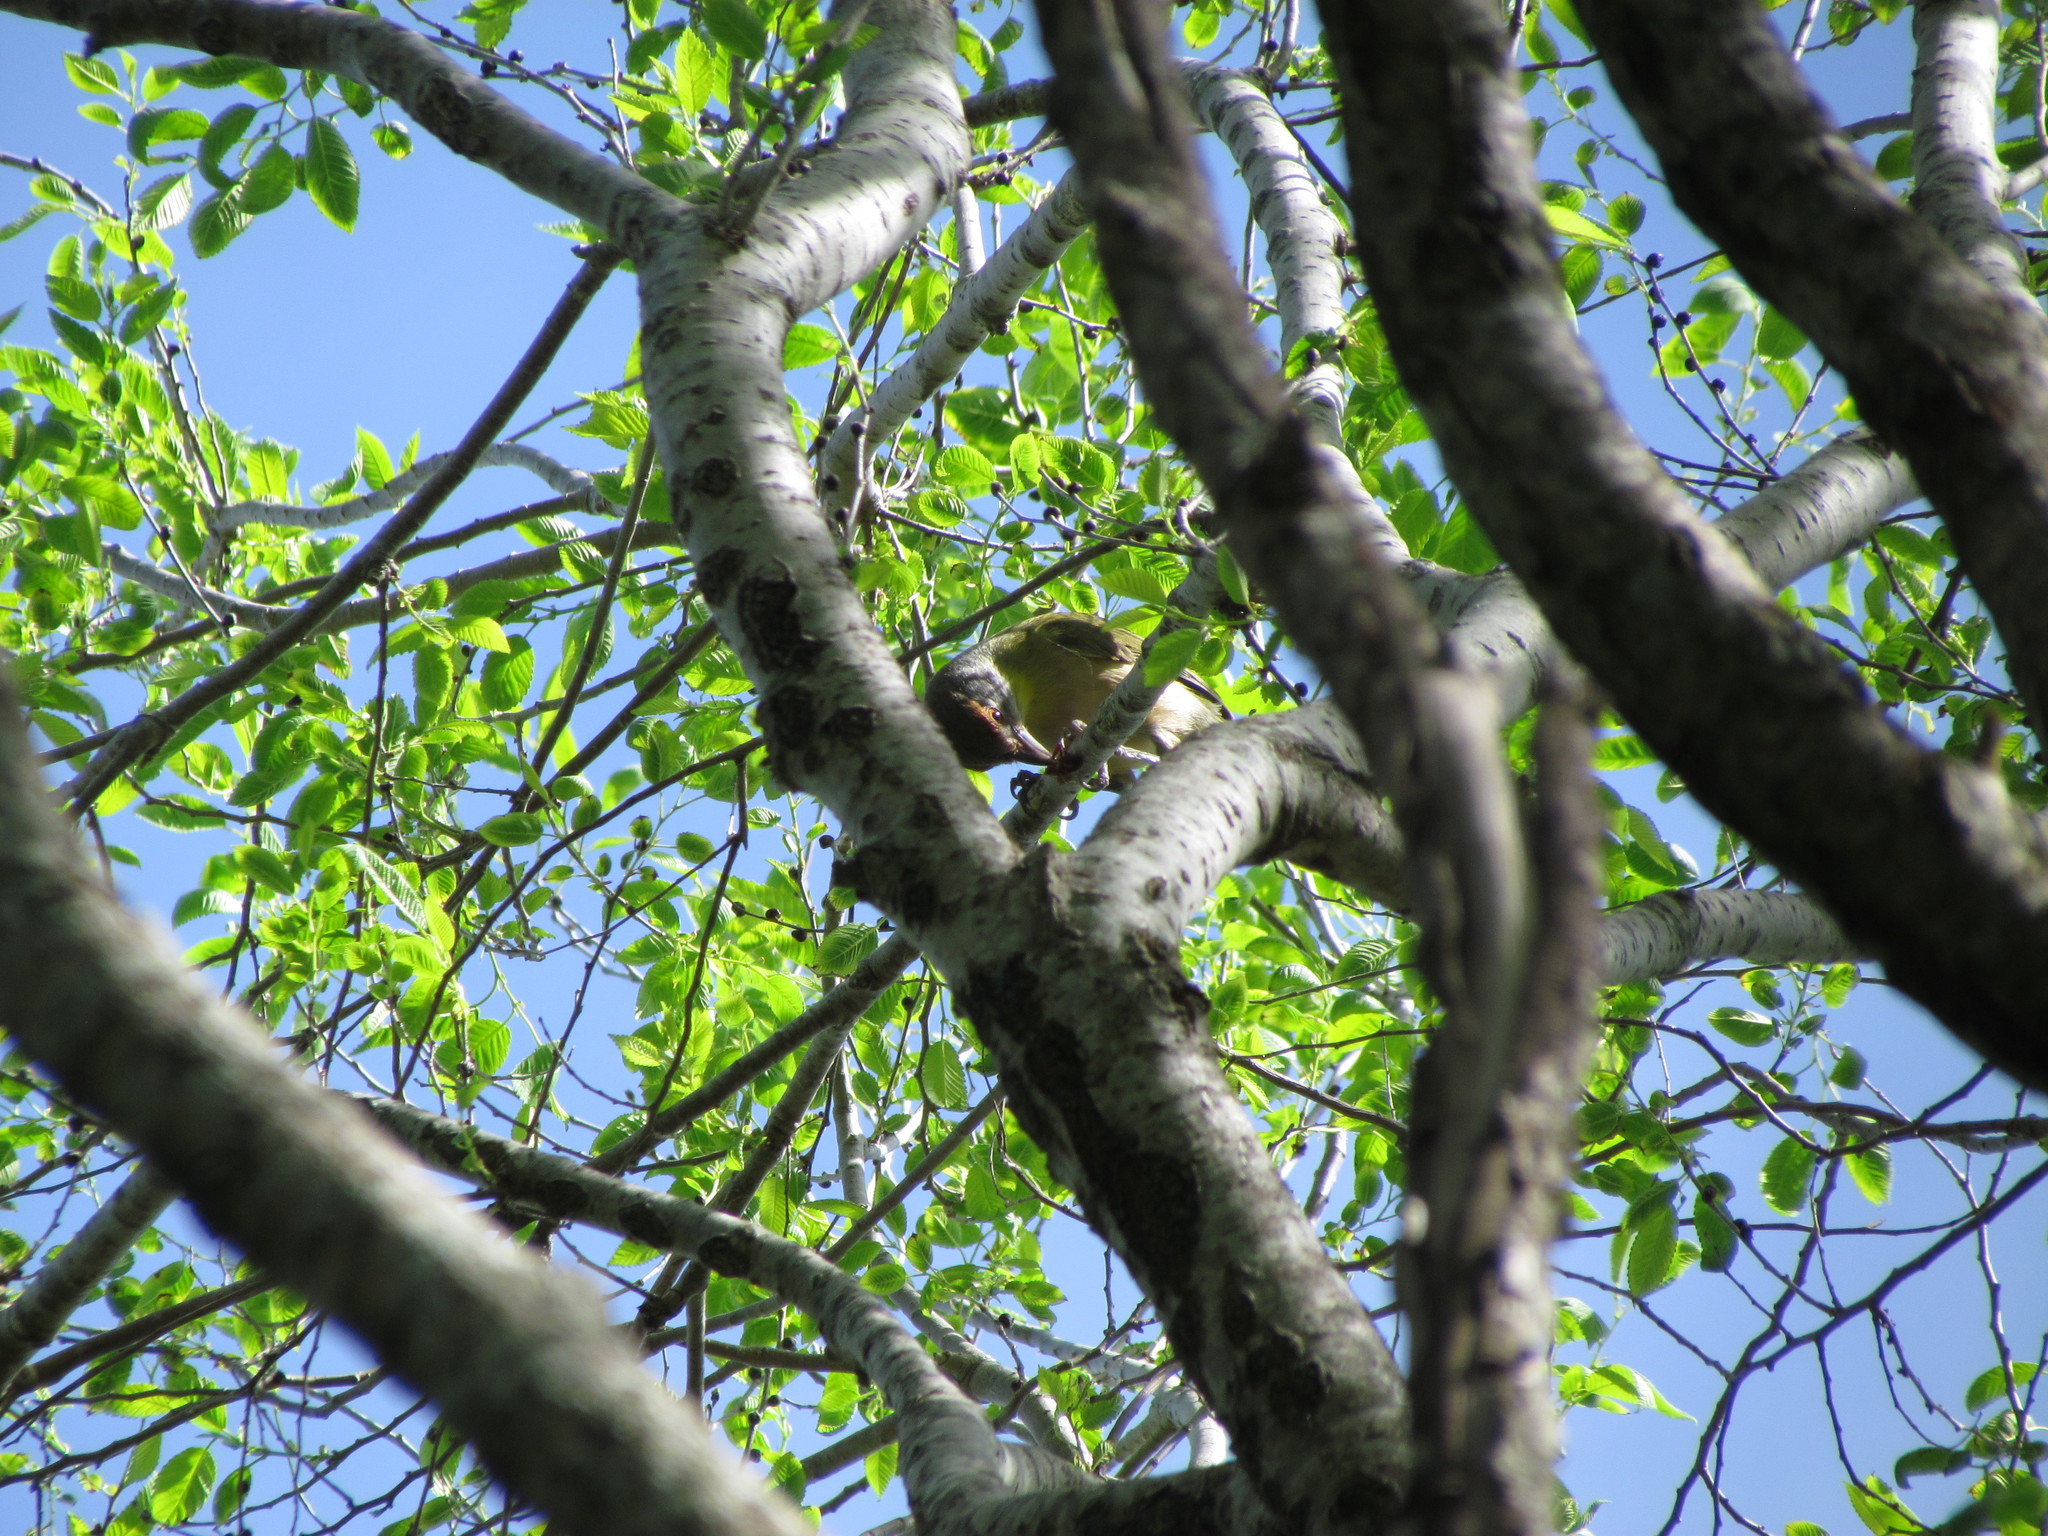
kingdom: Animalia
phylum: Chordata
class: Aves
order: Passeriformes
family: Vireonidae
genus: Cyclarhis
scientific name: Cyclarhis gujanensis
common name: Rufous-browed peppershrike
